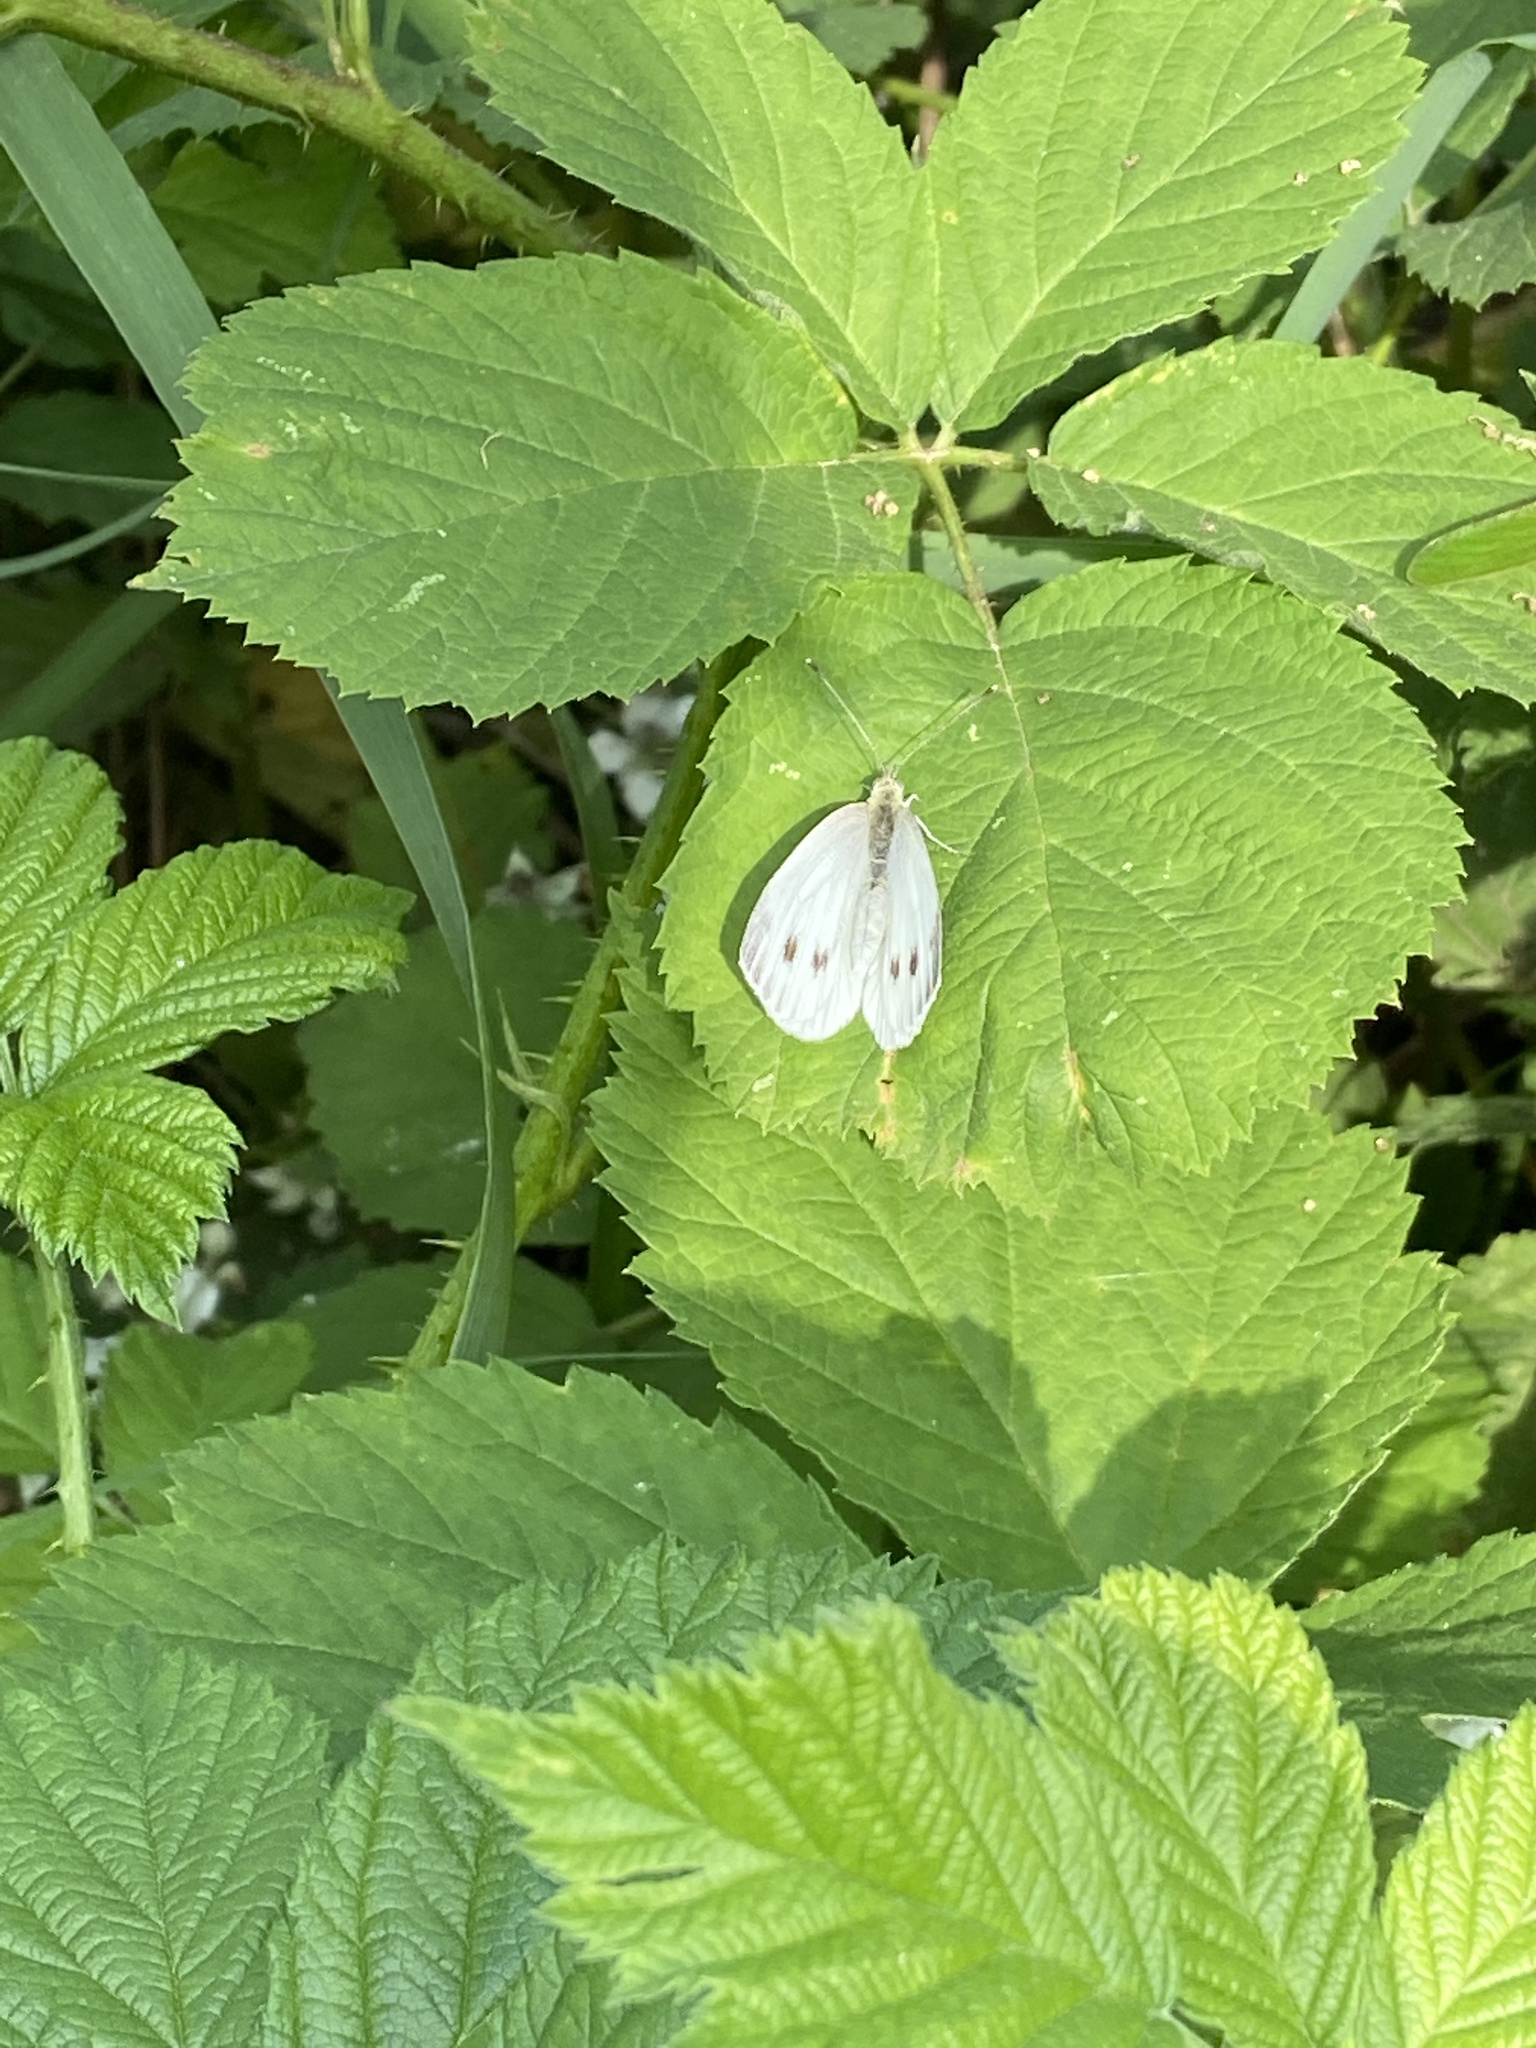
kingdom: Animalia
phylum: Arthropoda
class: Insecta
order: Lepidoptera
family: Pieridae
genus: Pieris
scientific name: Pieris napi
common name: Green-veined white
